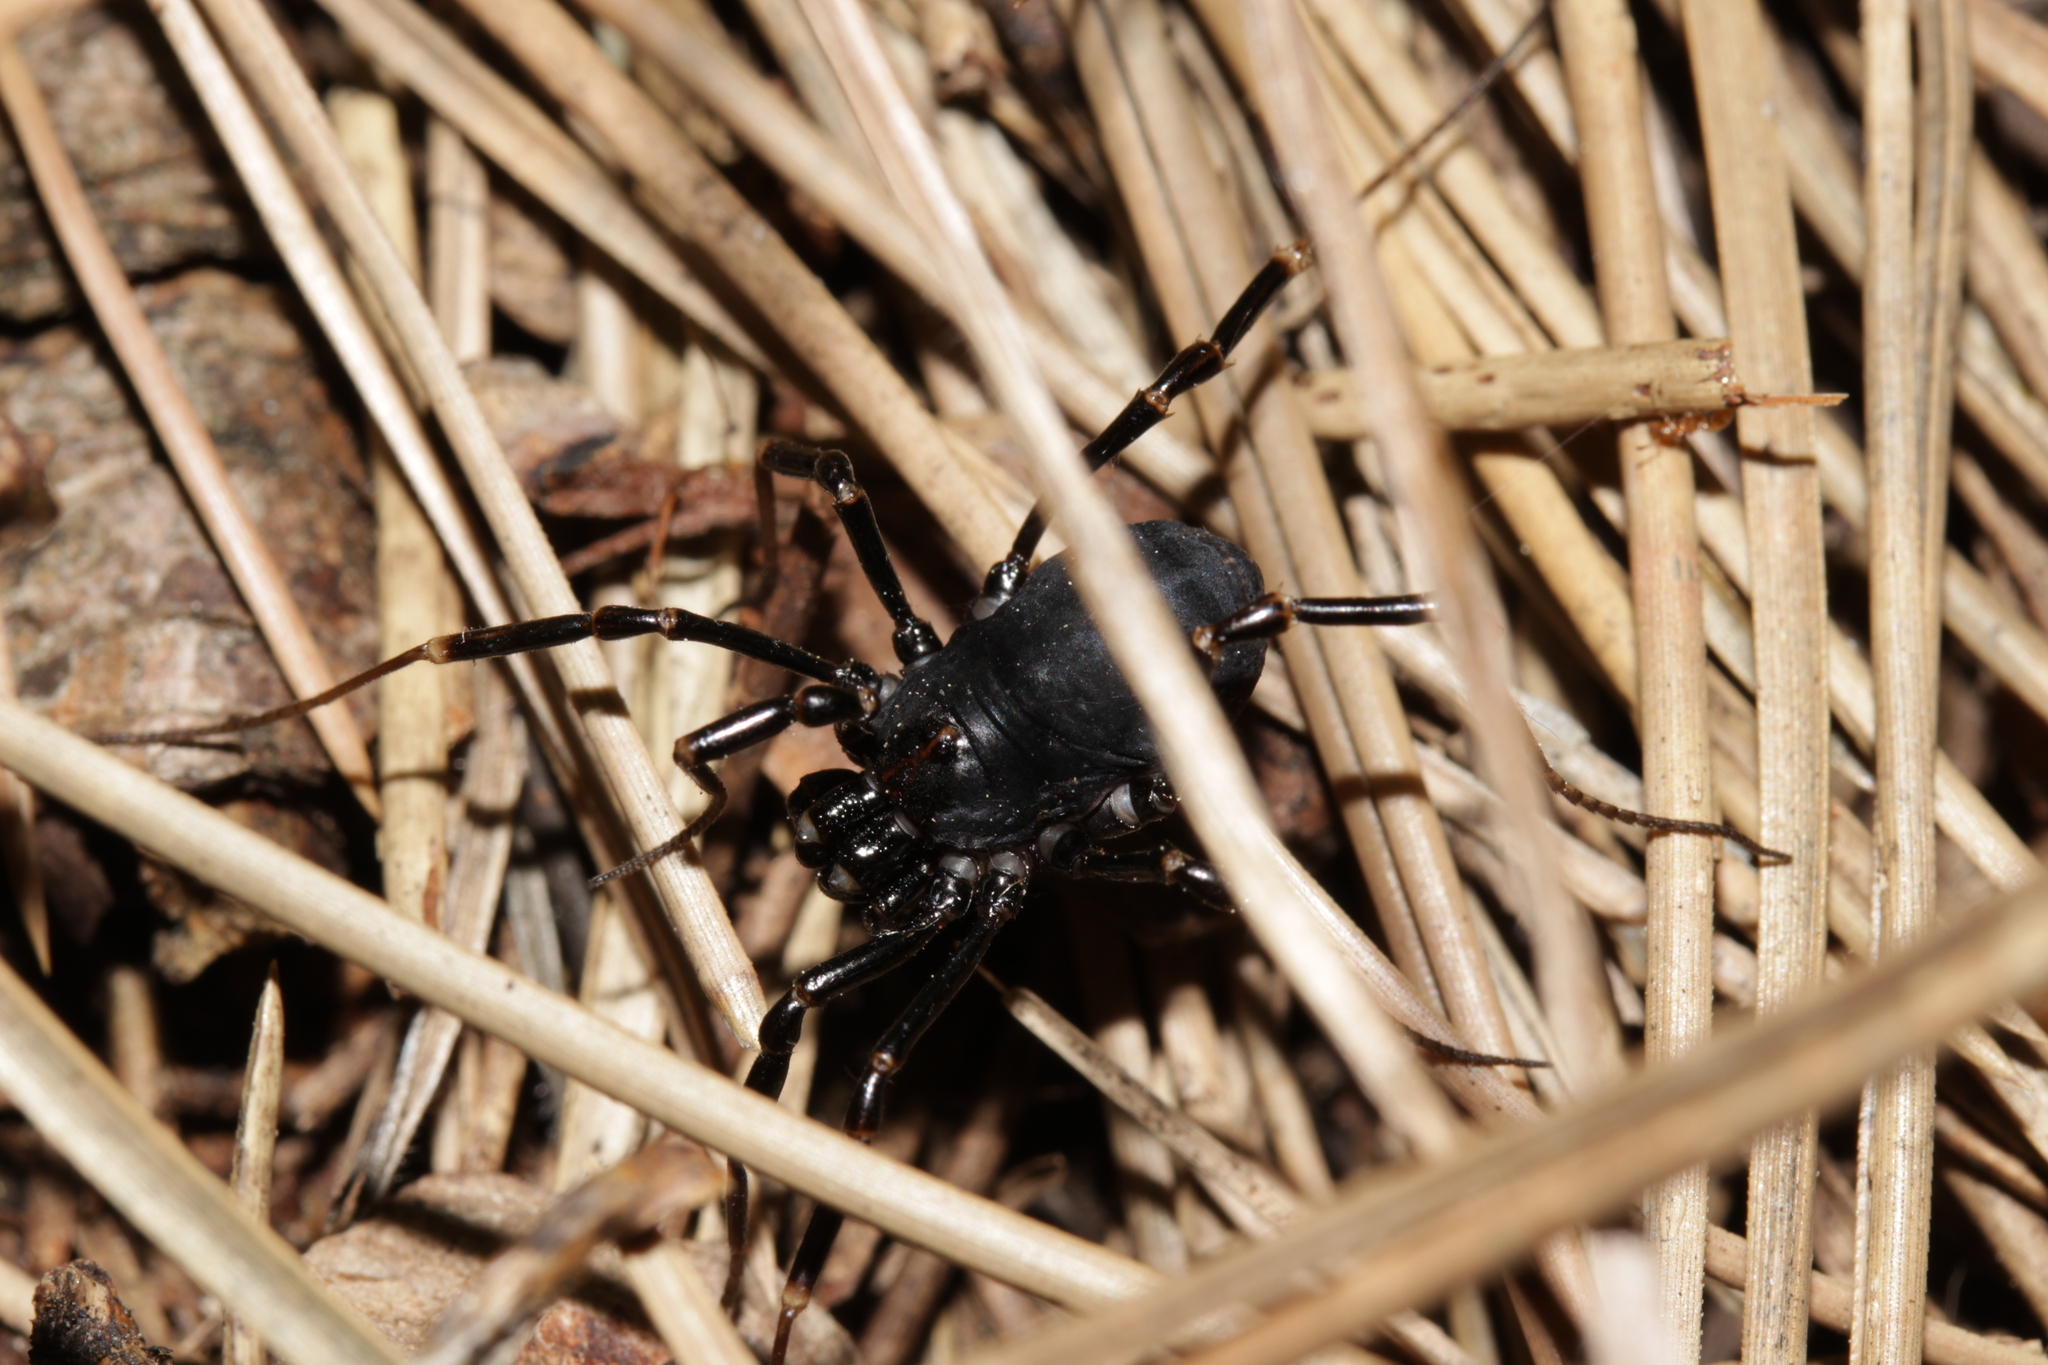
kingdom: Animalia
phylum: Arthropoda
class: Arachnida
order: Opiliones
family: Phalangiidae
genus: Egaenus
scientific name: Egaenus convexus
